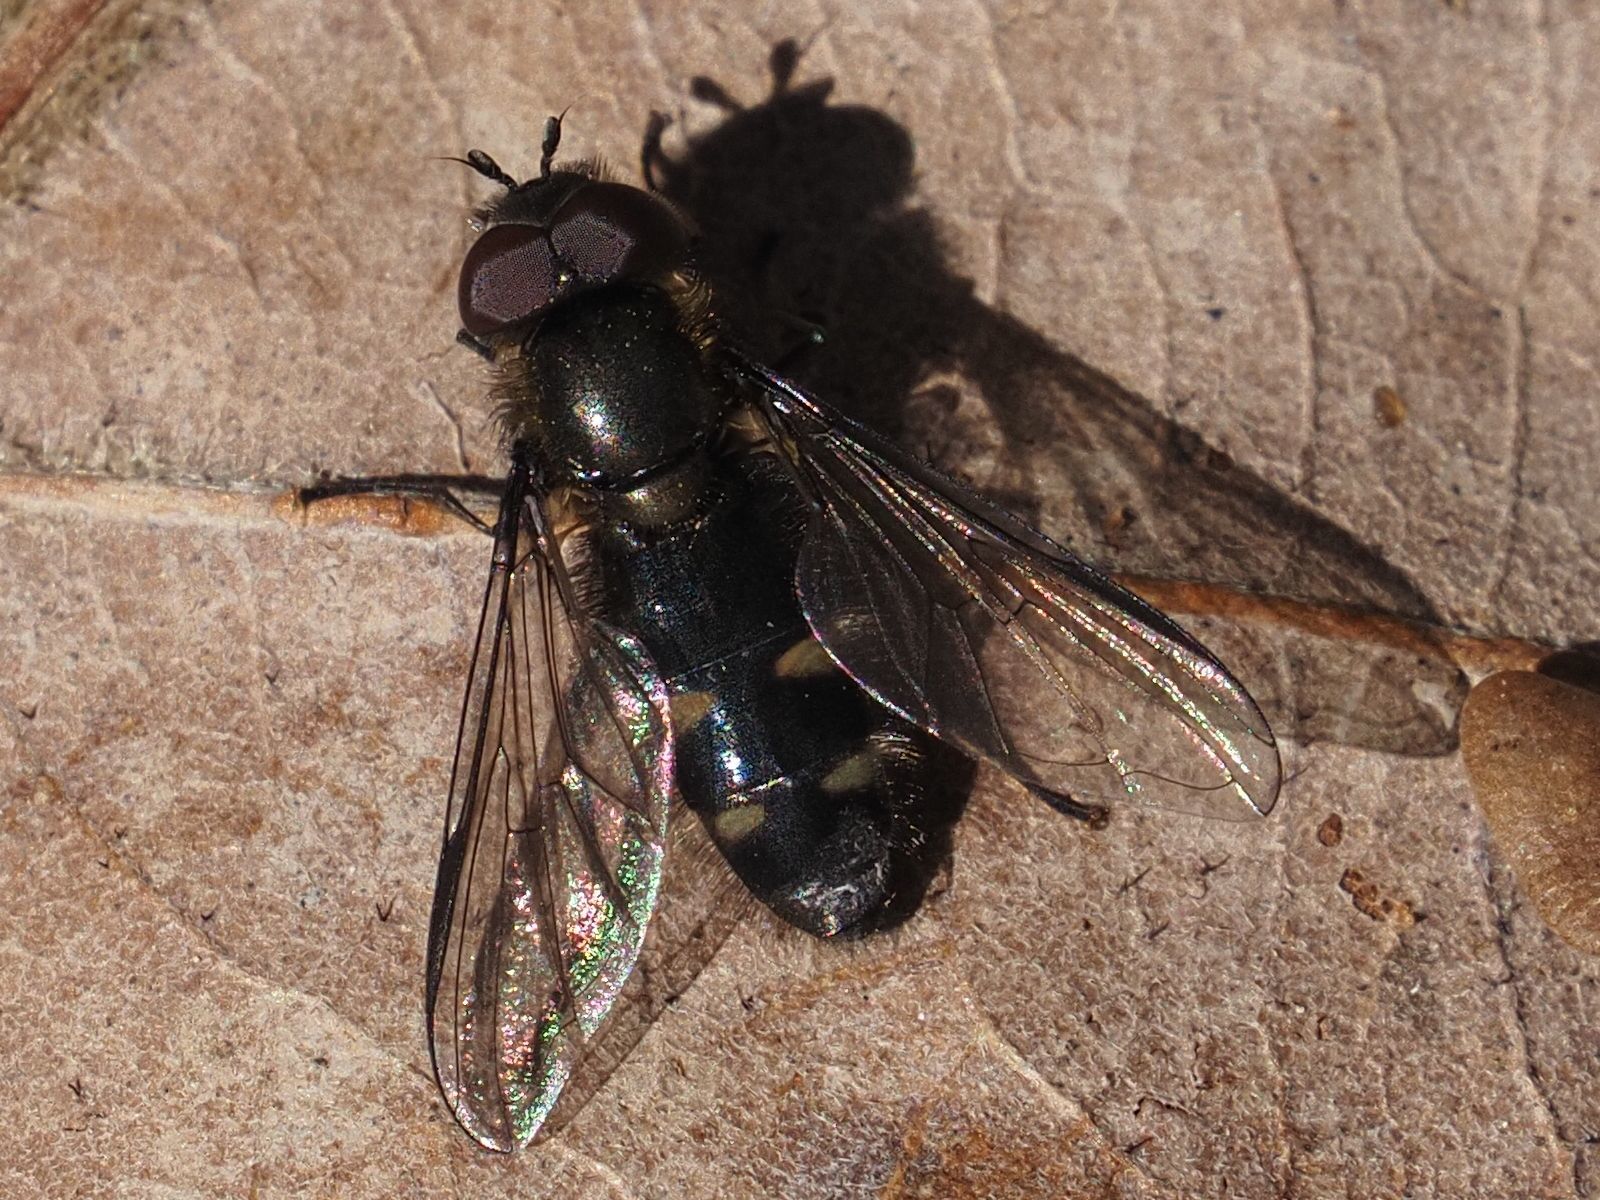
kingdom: Animalia
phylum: Arthropoda
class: Insecta
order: Diptera
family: Syrphidae
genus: Melangyna
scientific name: Melangyna quadrimaculata
